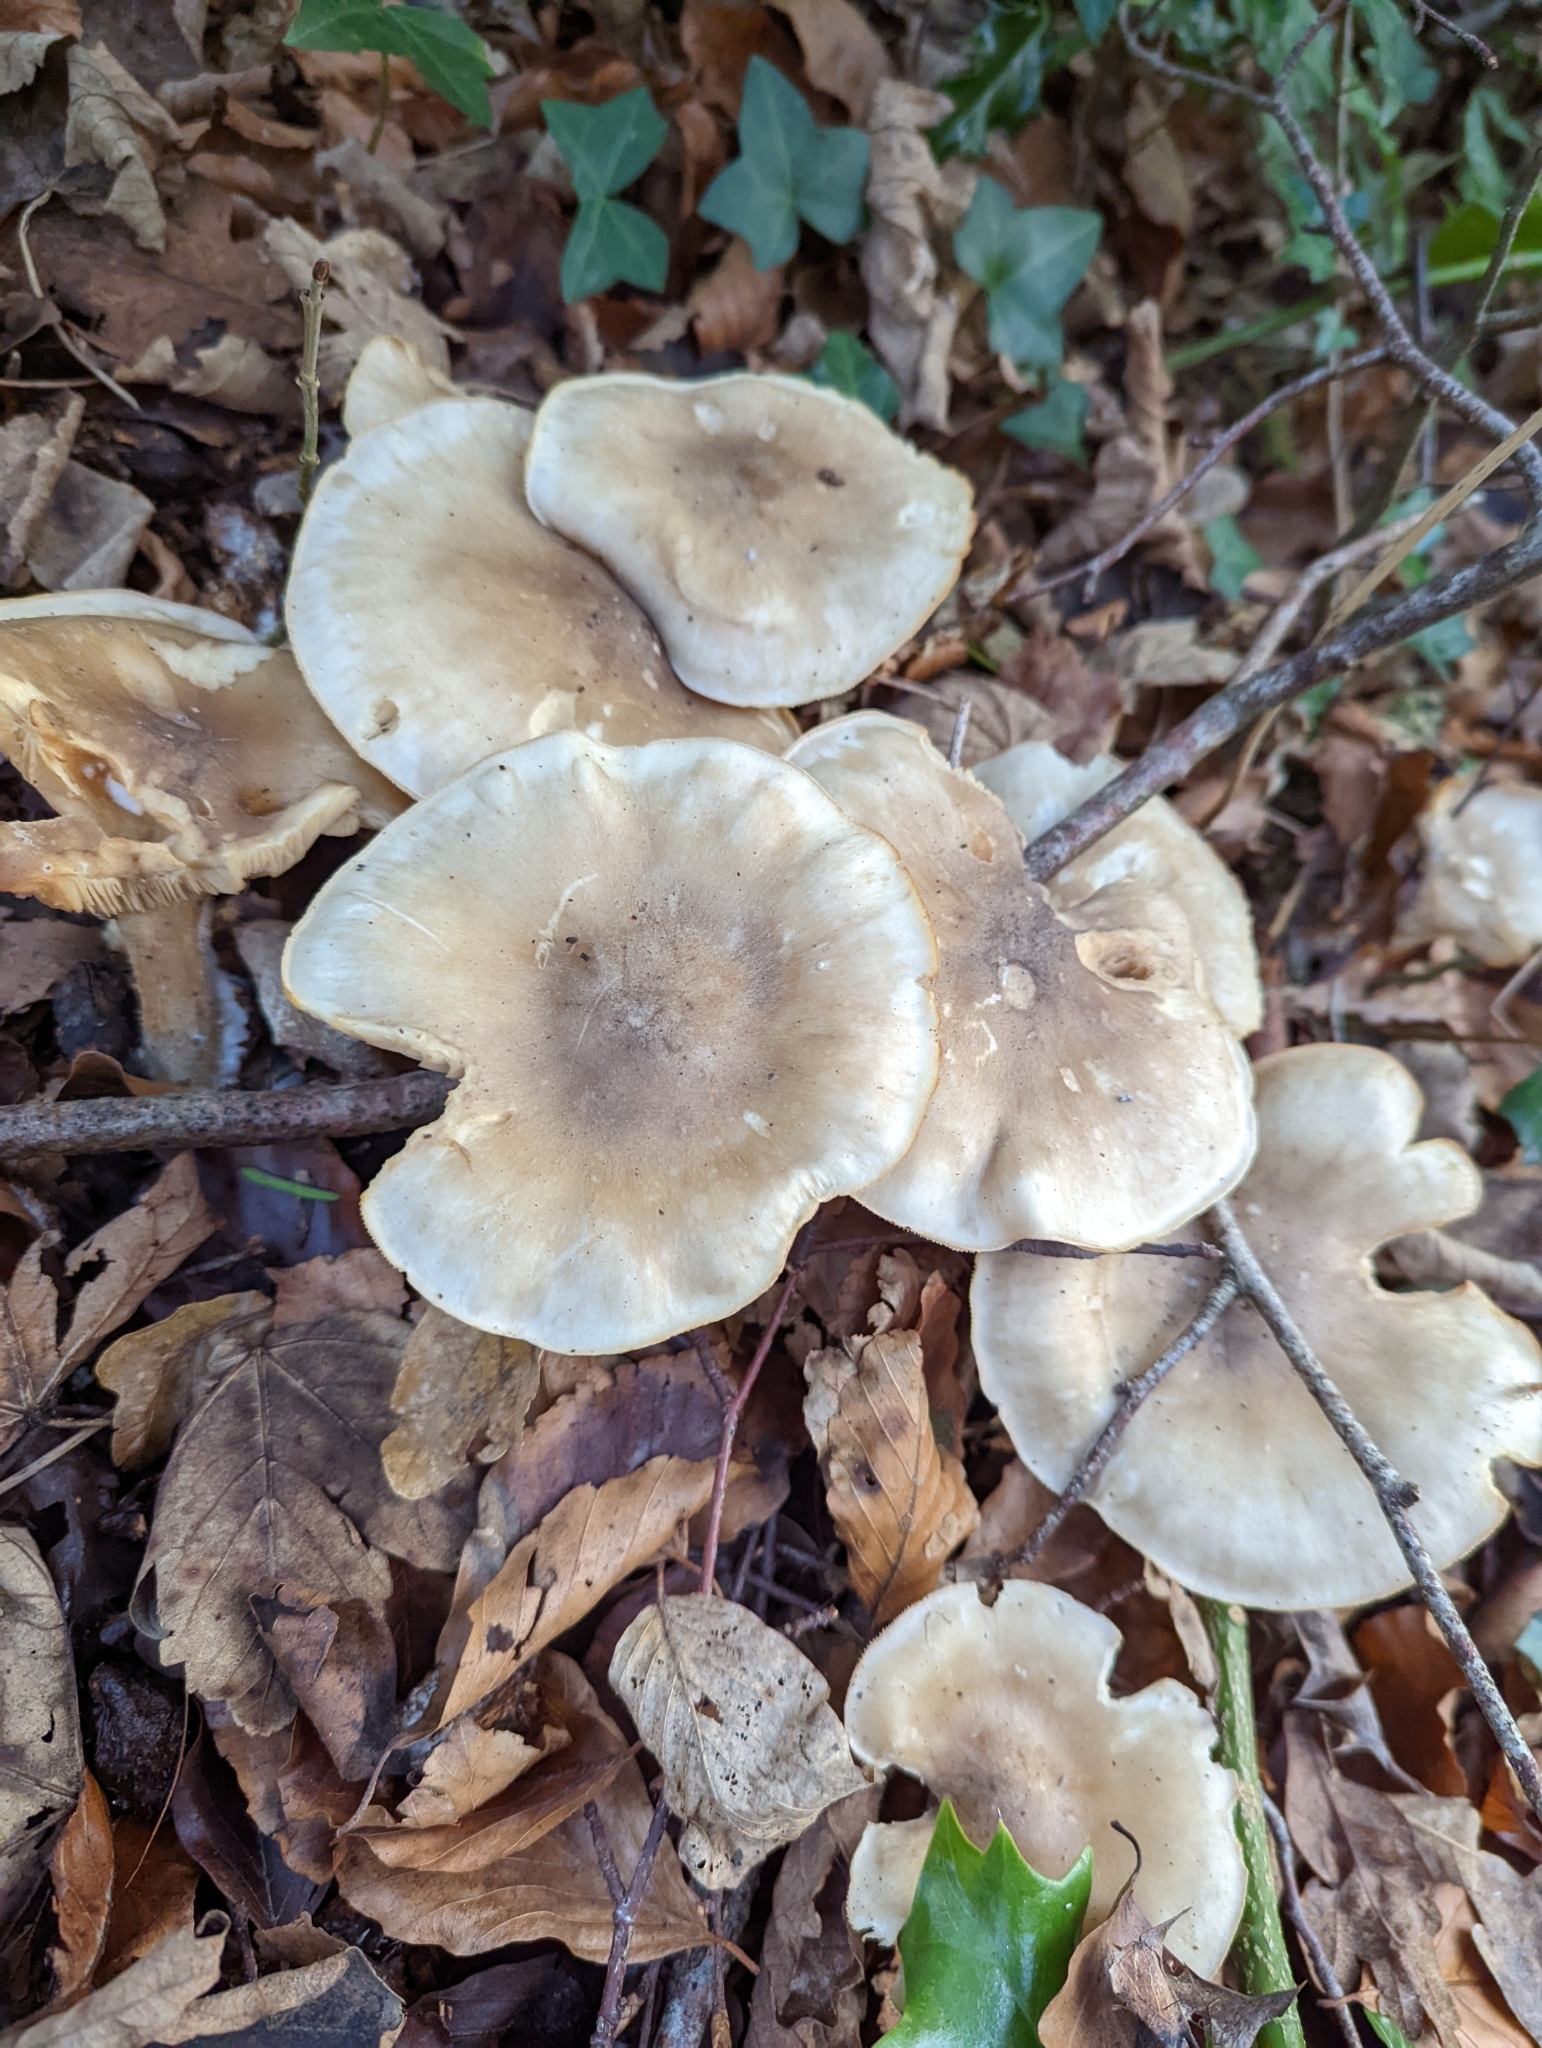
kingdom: Fungi
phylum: Basidiomycota
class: Agaricomycetes
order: Agaricales
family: Tricholomataceae
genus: Clitocybe
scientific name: Clitocybe nebularis
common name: Clouded agaric
